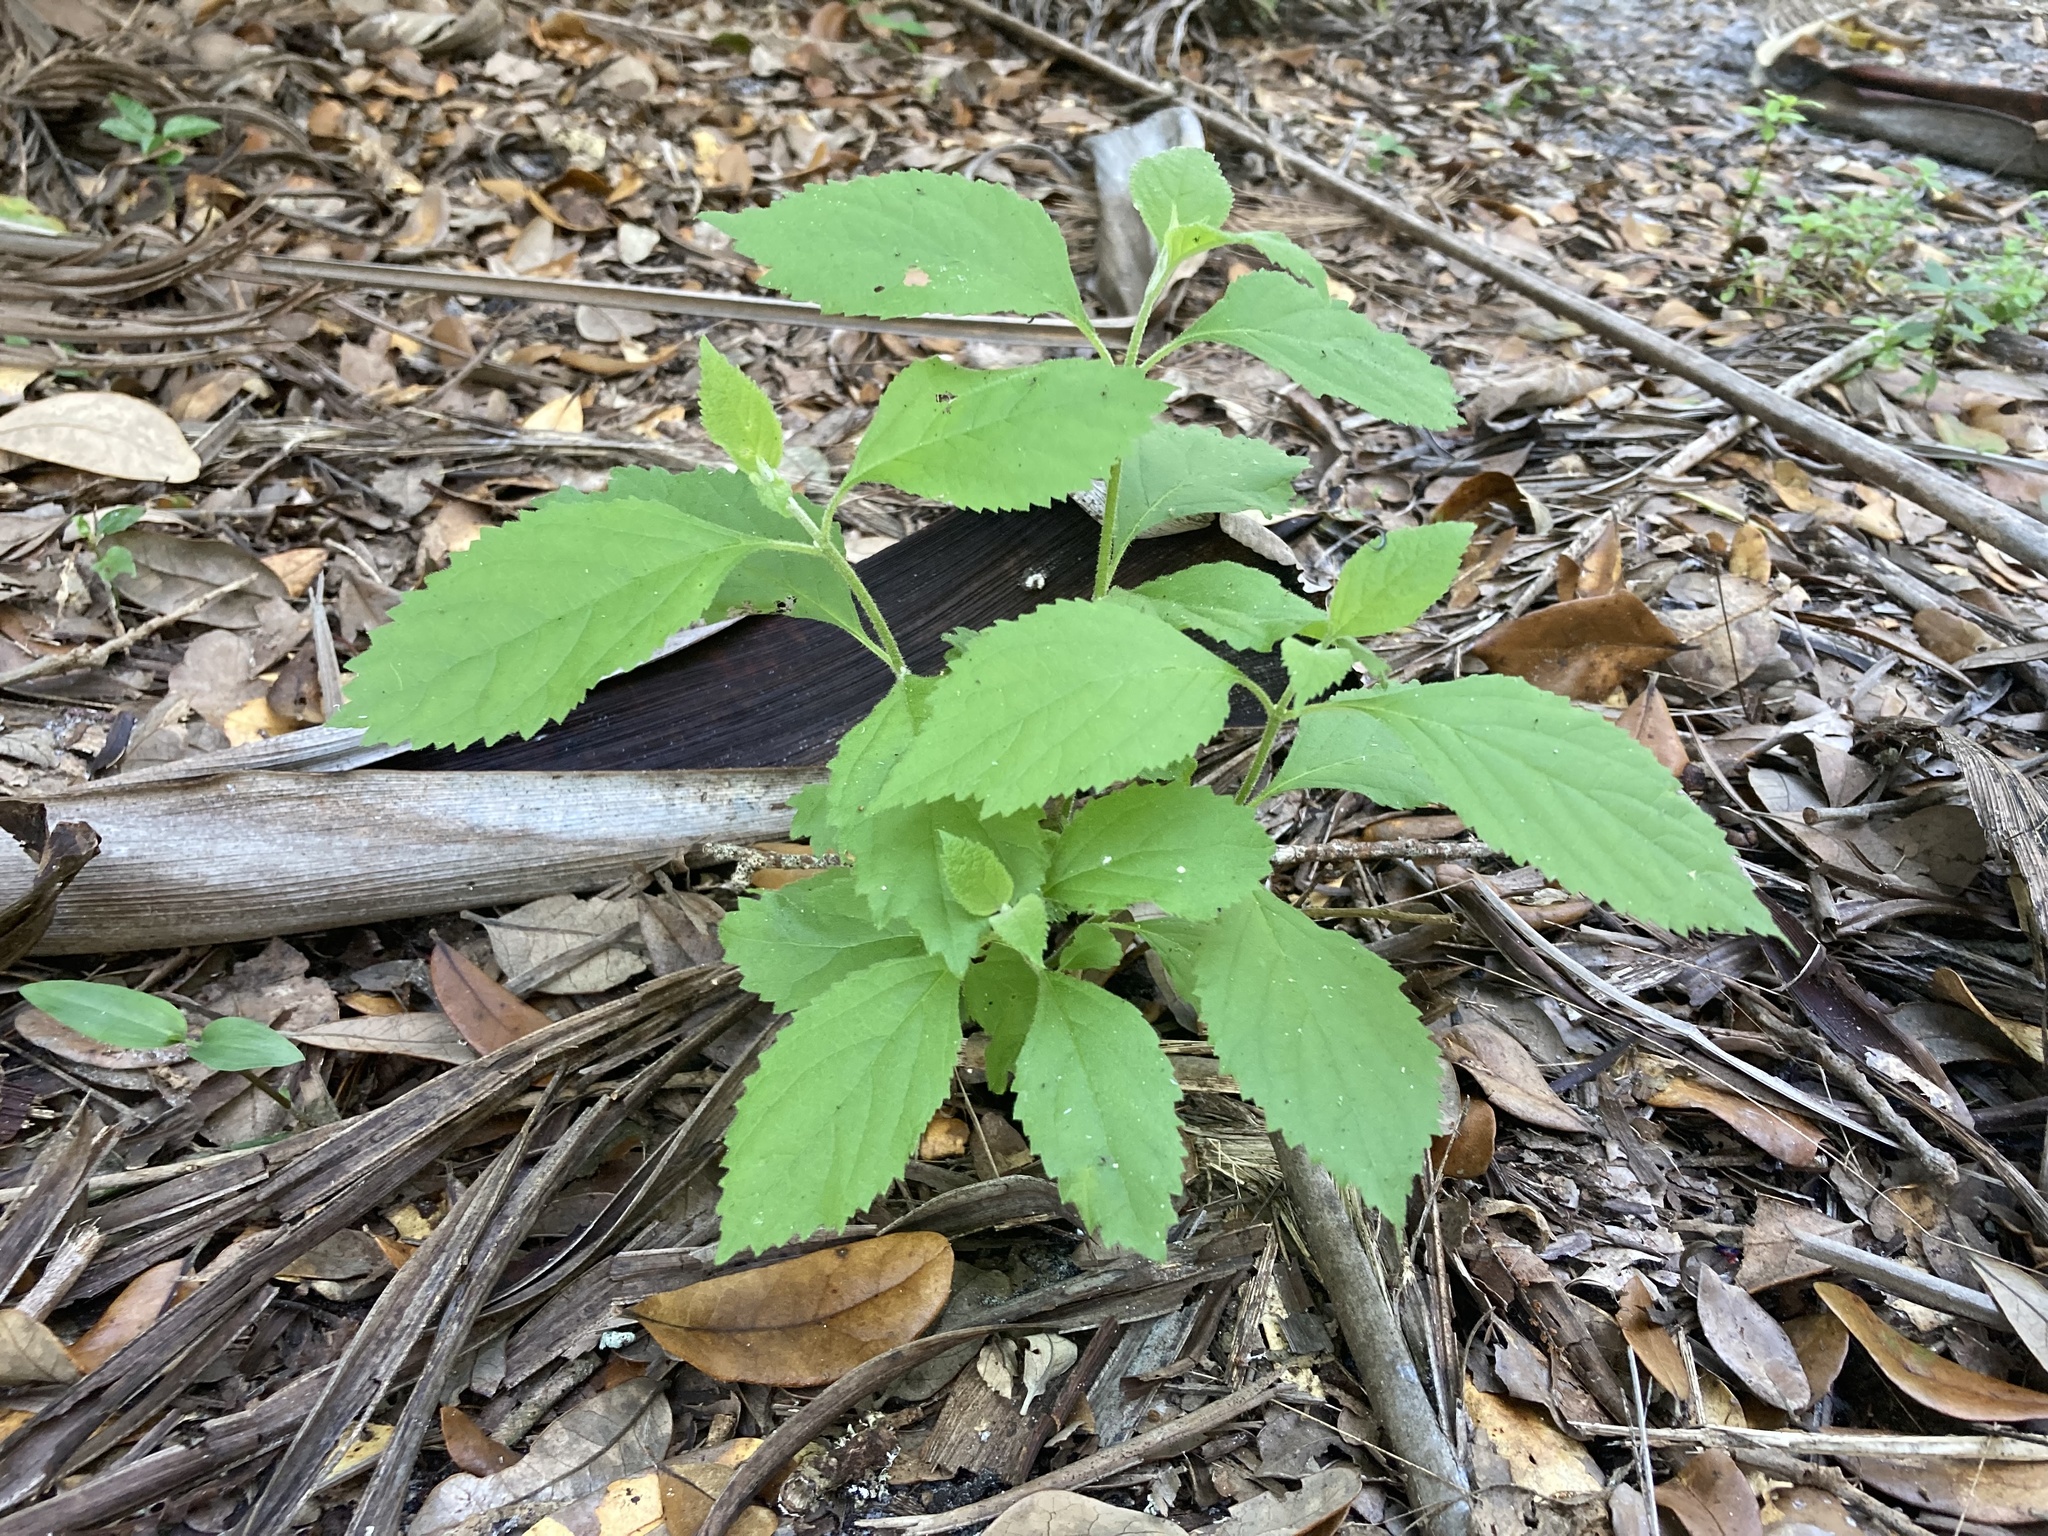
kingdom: Plantae
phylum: Tracheophyta
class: Magnoliopsida
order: Lamiales
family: Lamiaceae
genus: Callicarpa
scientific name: Callicarpa americana
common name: American beautyberry
